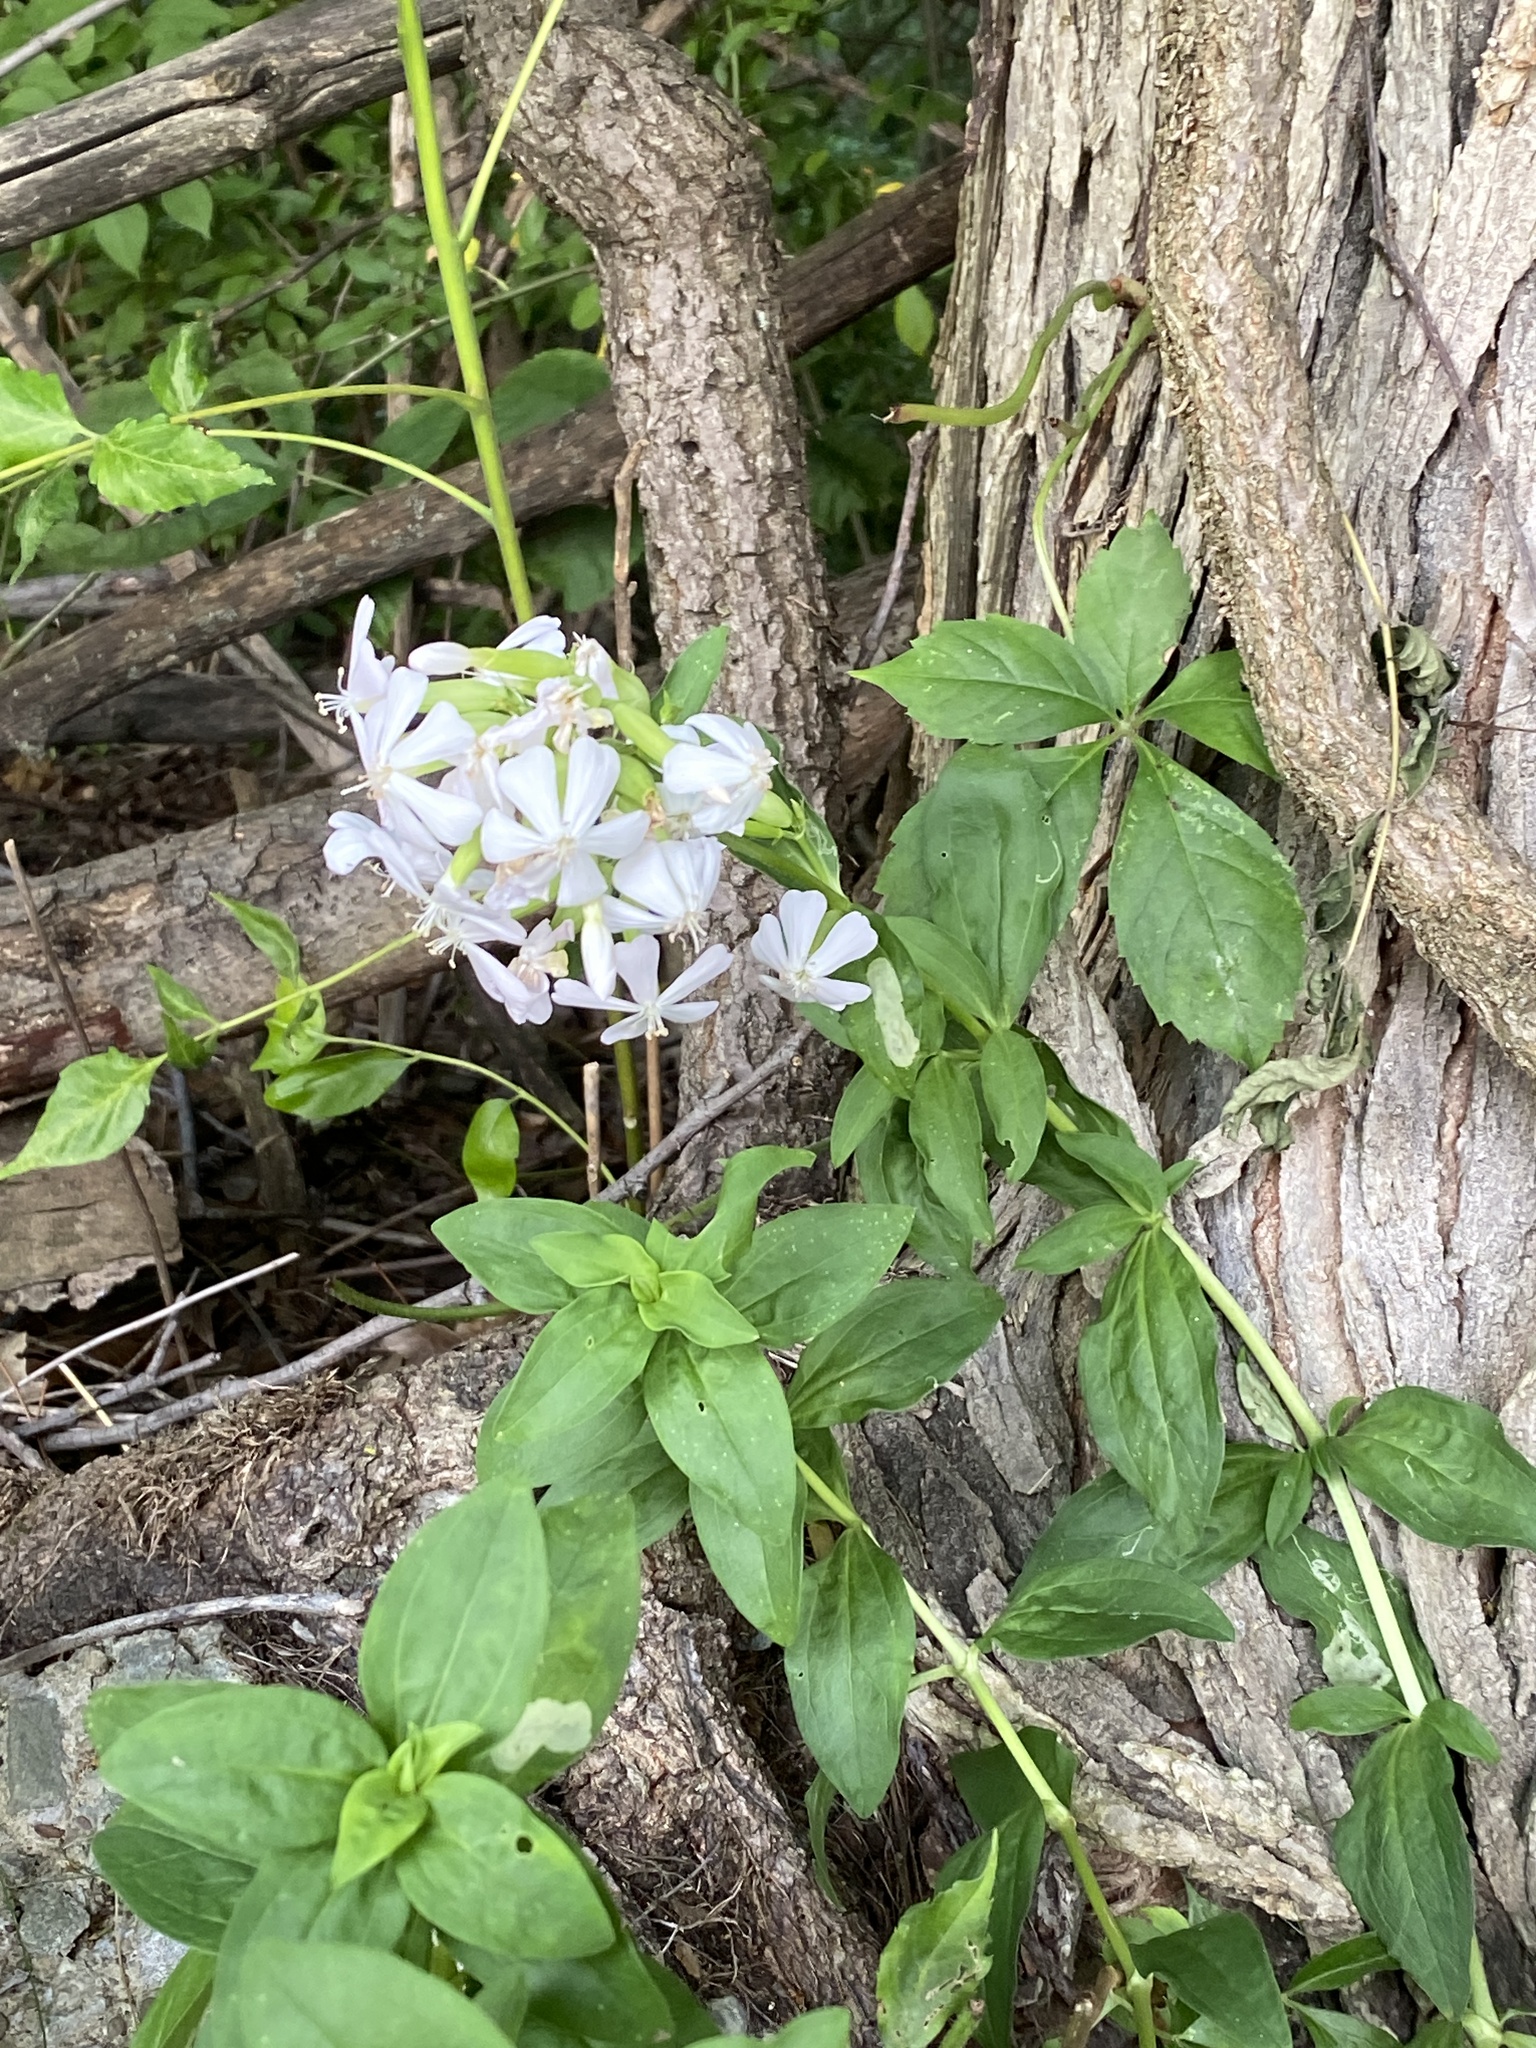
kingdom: Plantae
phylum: Tracheophyta
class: Magnoliopsida
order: Caryophyllales
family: Caryophyllaceae
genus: Saponaria
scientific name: Saponaria officinalis
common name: Soapwort
